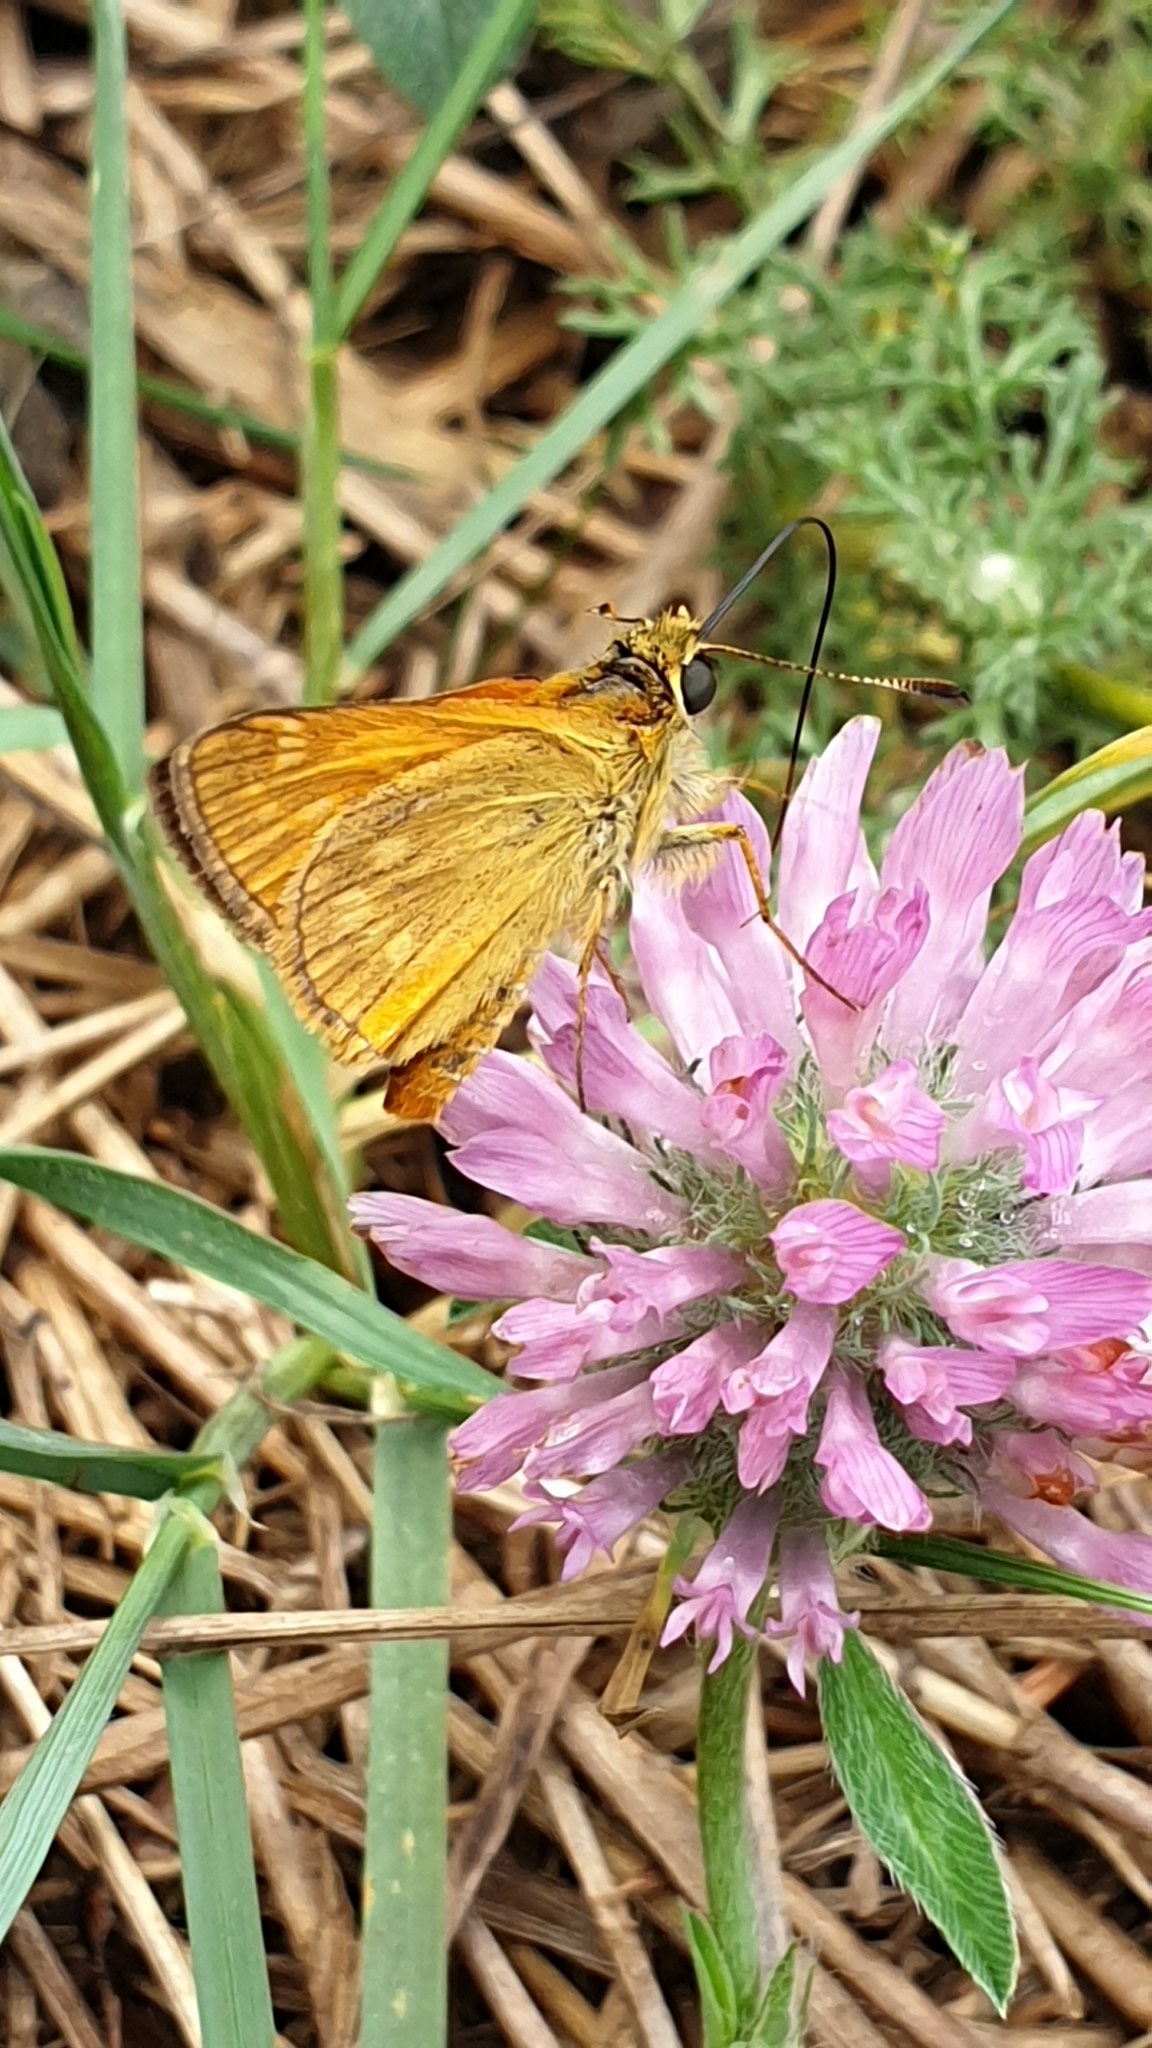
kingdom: Animalia
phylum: Arthropoda
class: Insecta
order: Lepidoptera
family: Hesperiidae
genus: Ochlodes
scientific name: Ochlodes venata
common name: Large skipper
